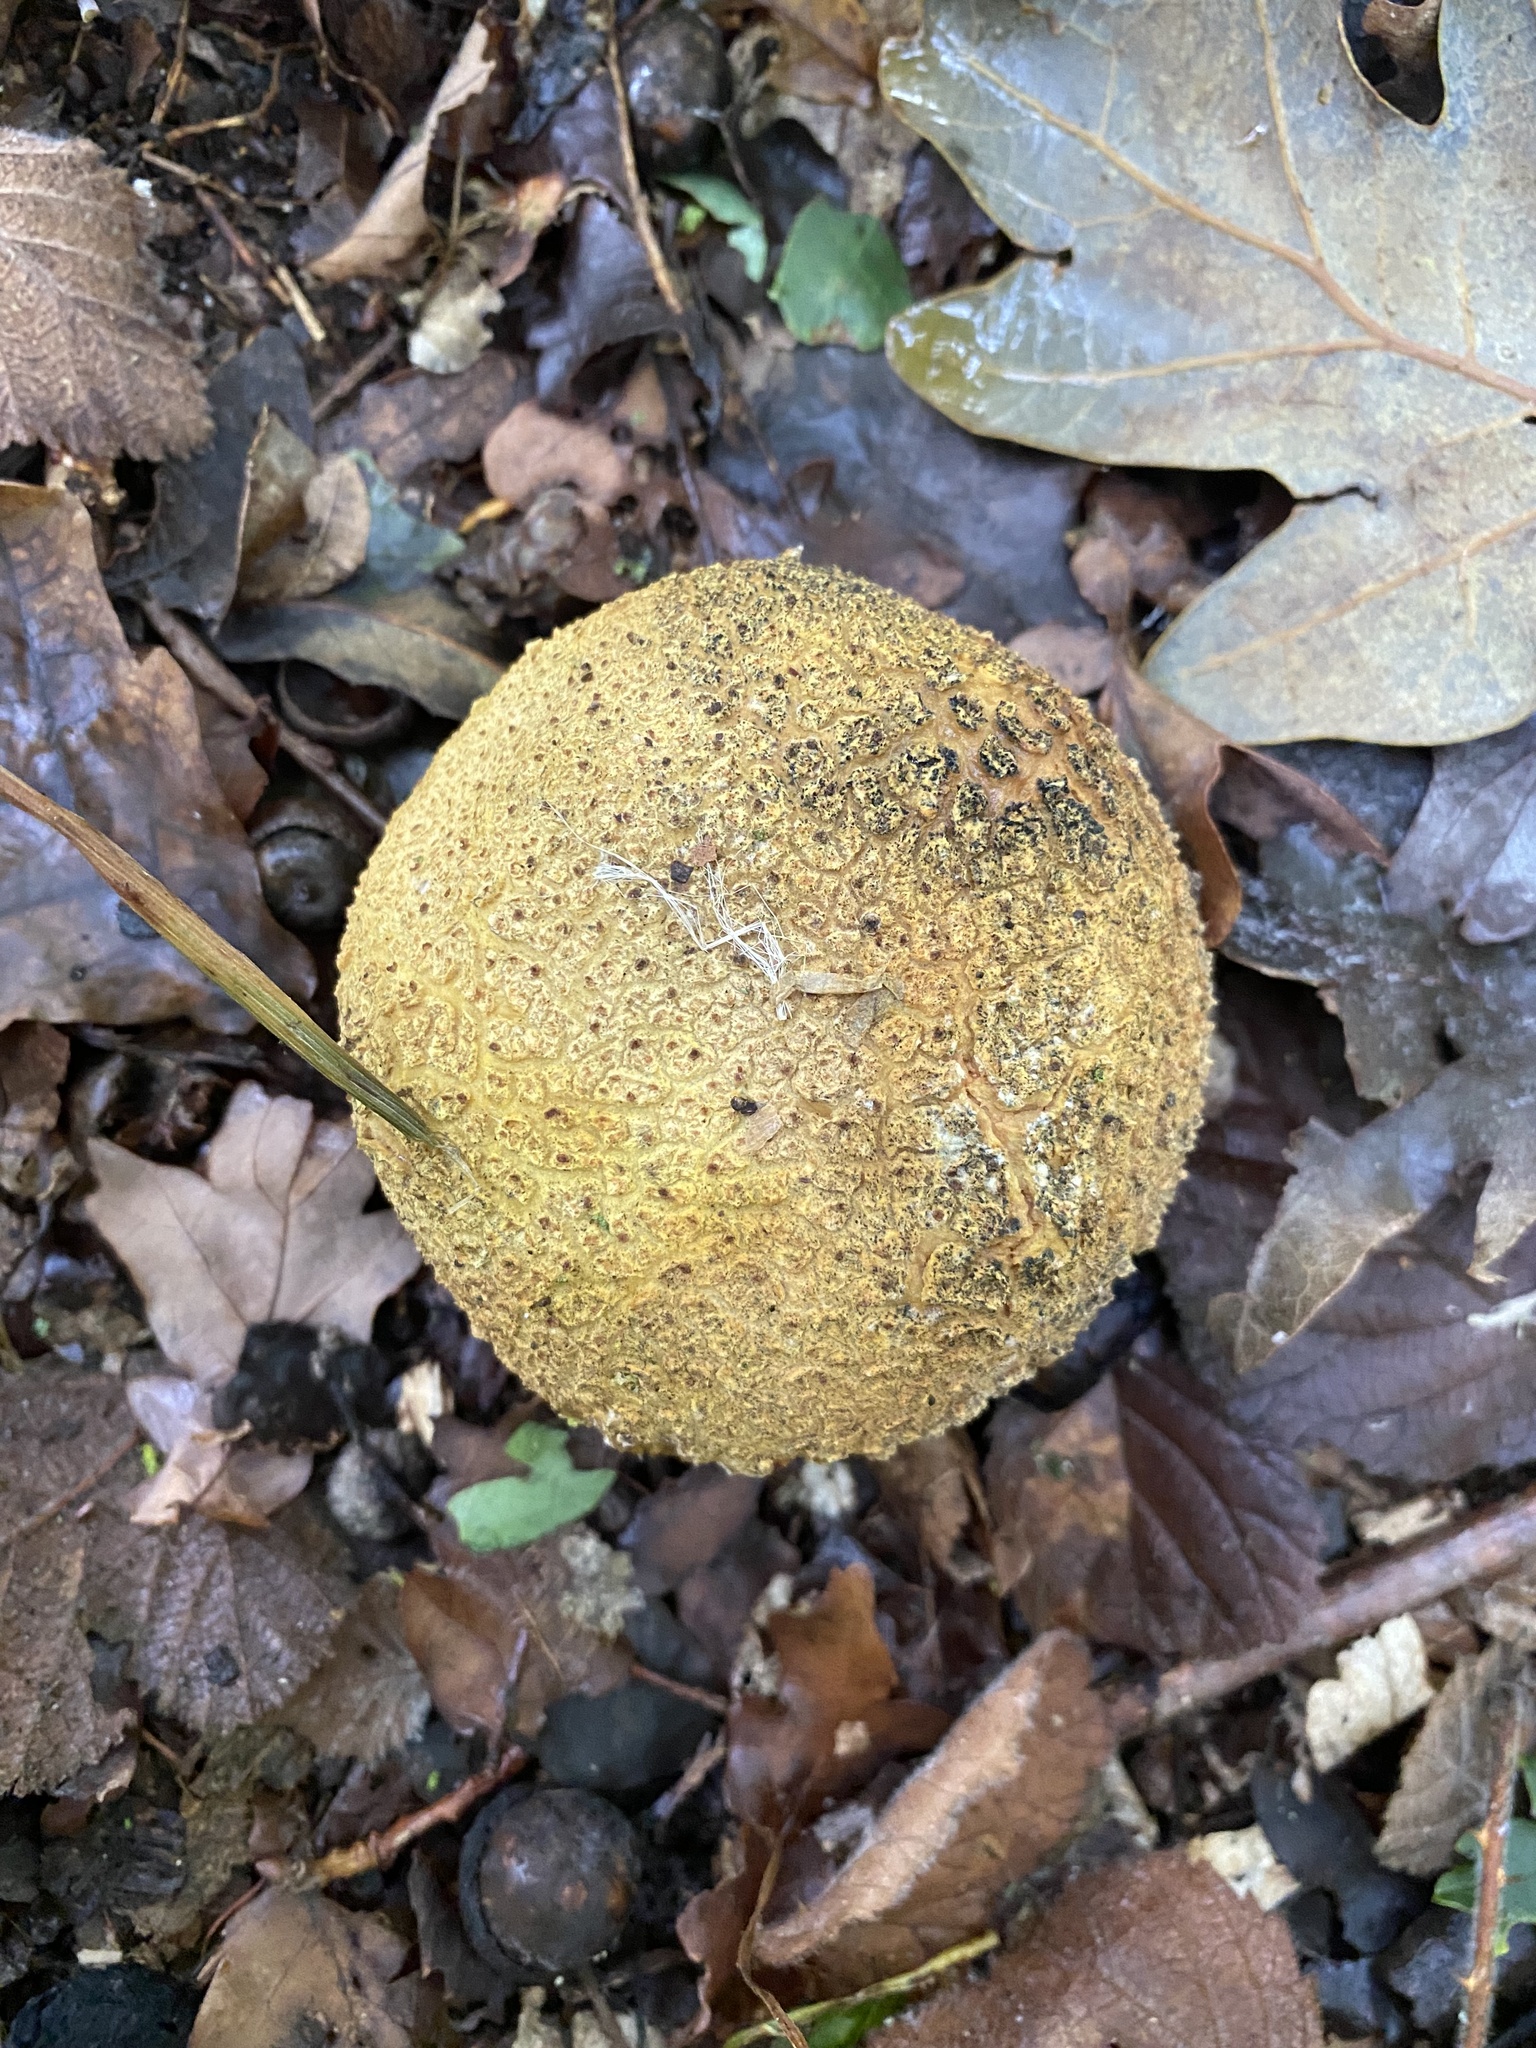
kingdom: Fungi
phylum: Basidiomycota
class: Agaricomycetes
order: Boletales
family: Sclerodermataceae
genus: Scleroderma
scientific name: Scleroderma citrinum
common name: Common earthball
